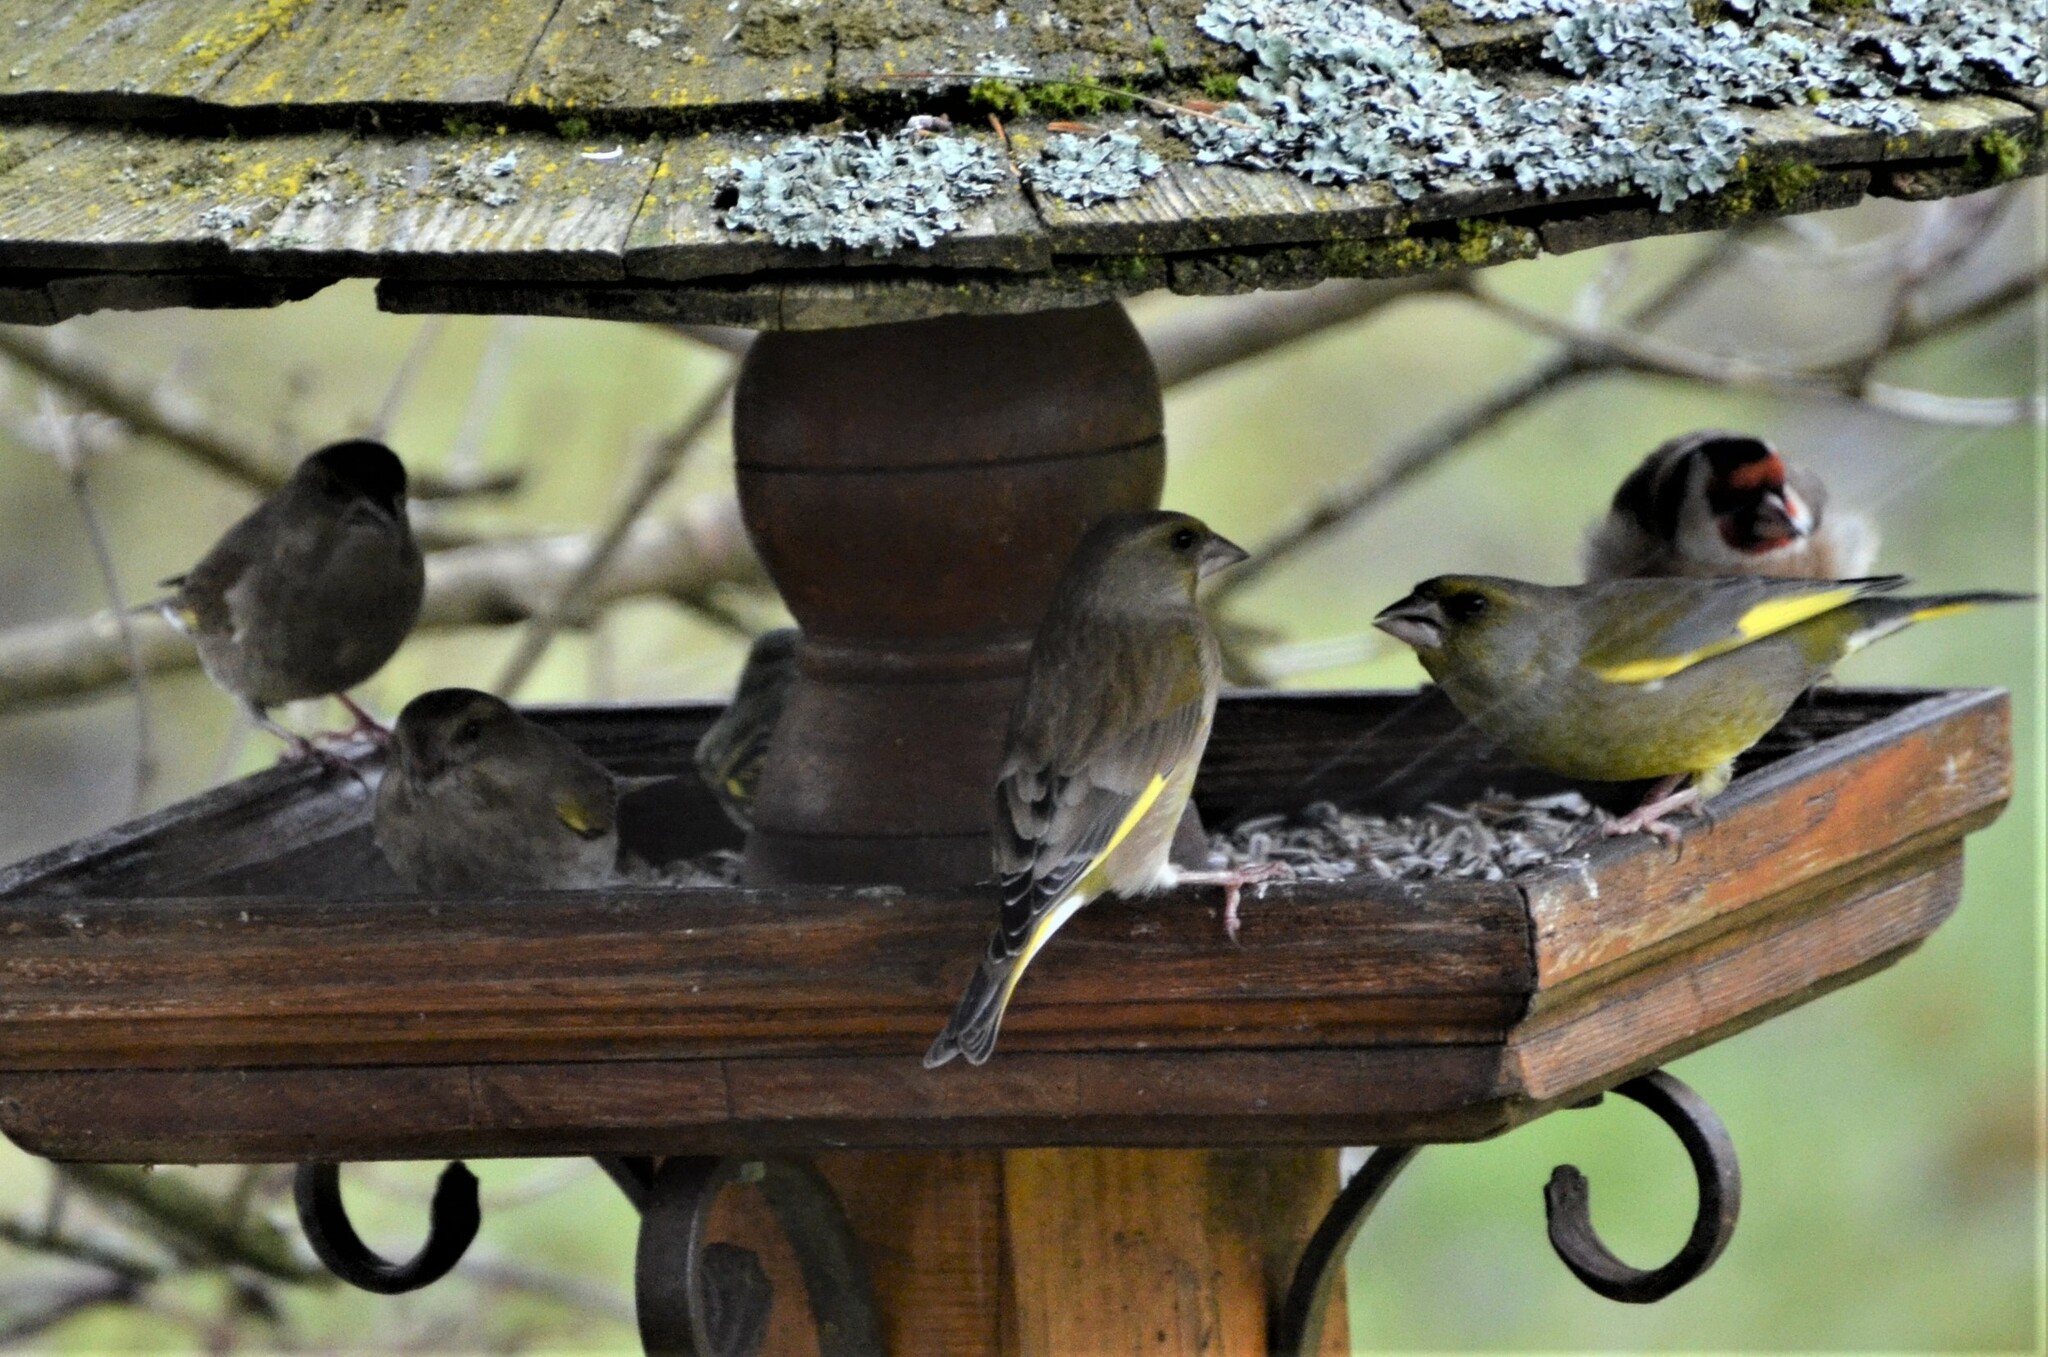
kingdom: Plantae
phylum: Tracheophyta
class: Liliopsida
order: Poales
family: Poaceae
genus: Chloris
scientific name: Chloris chloris
